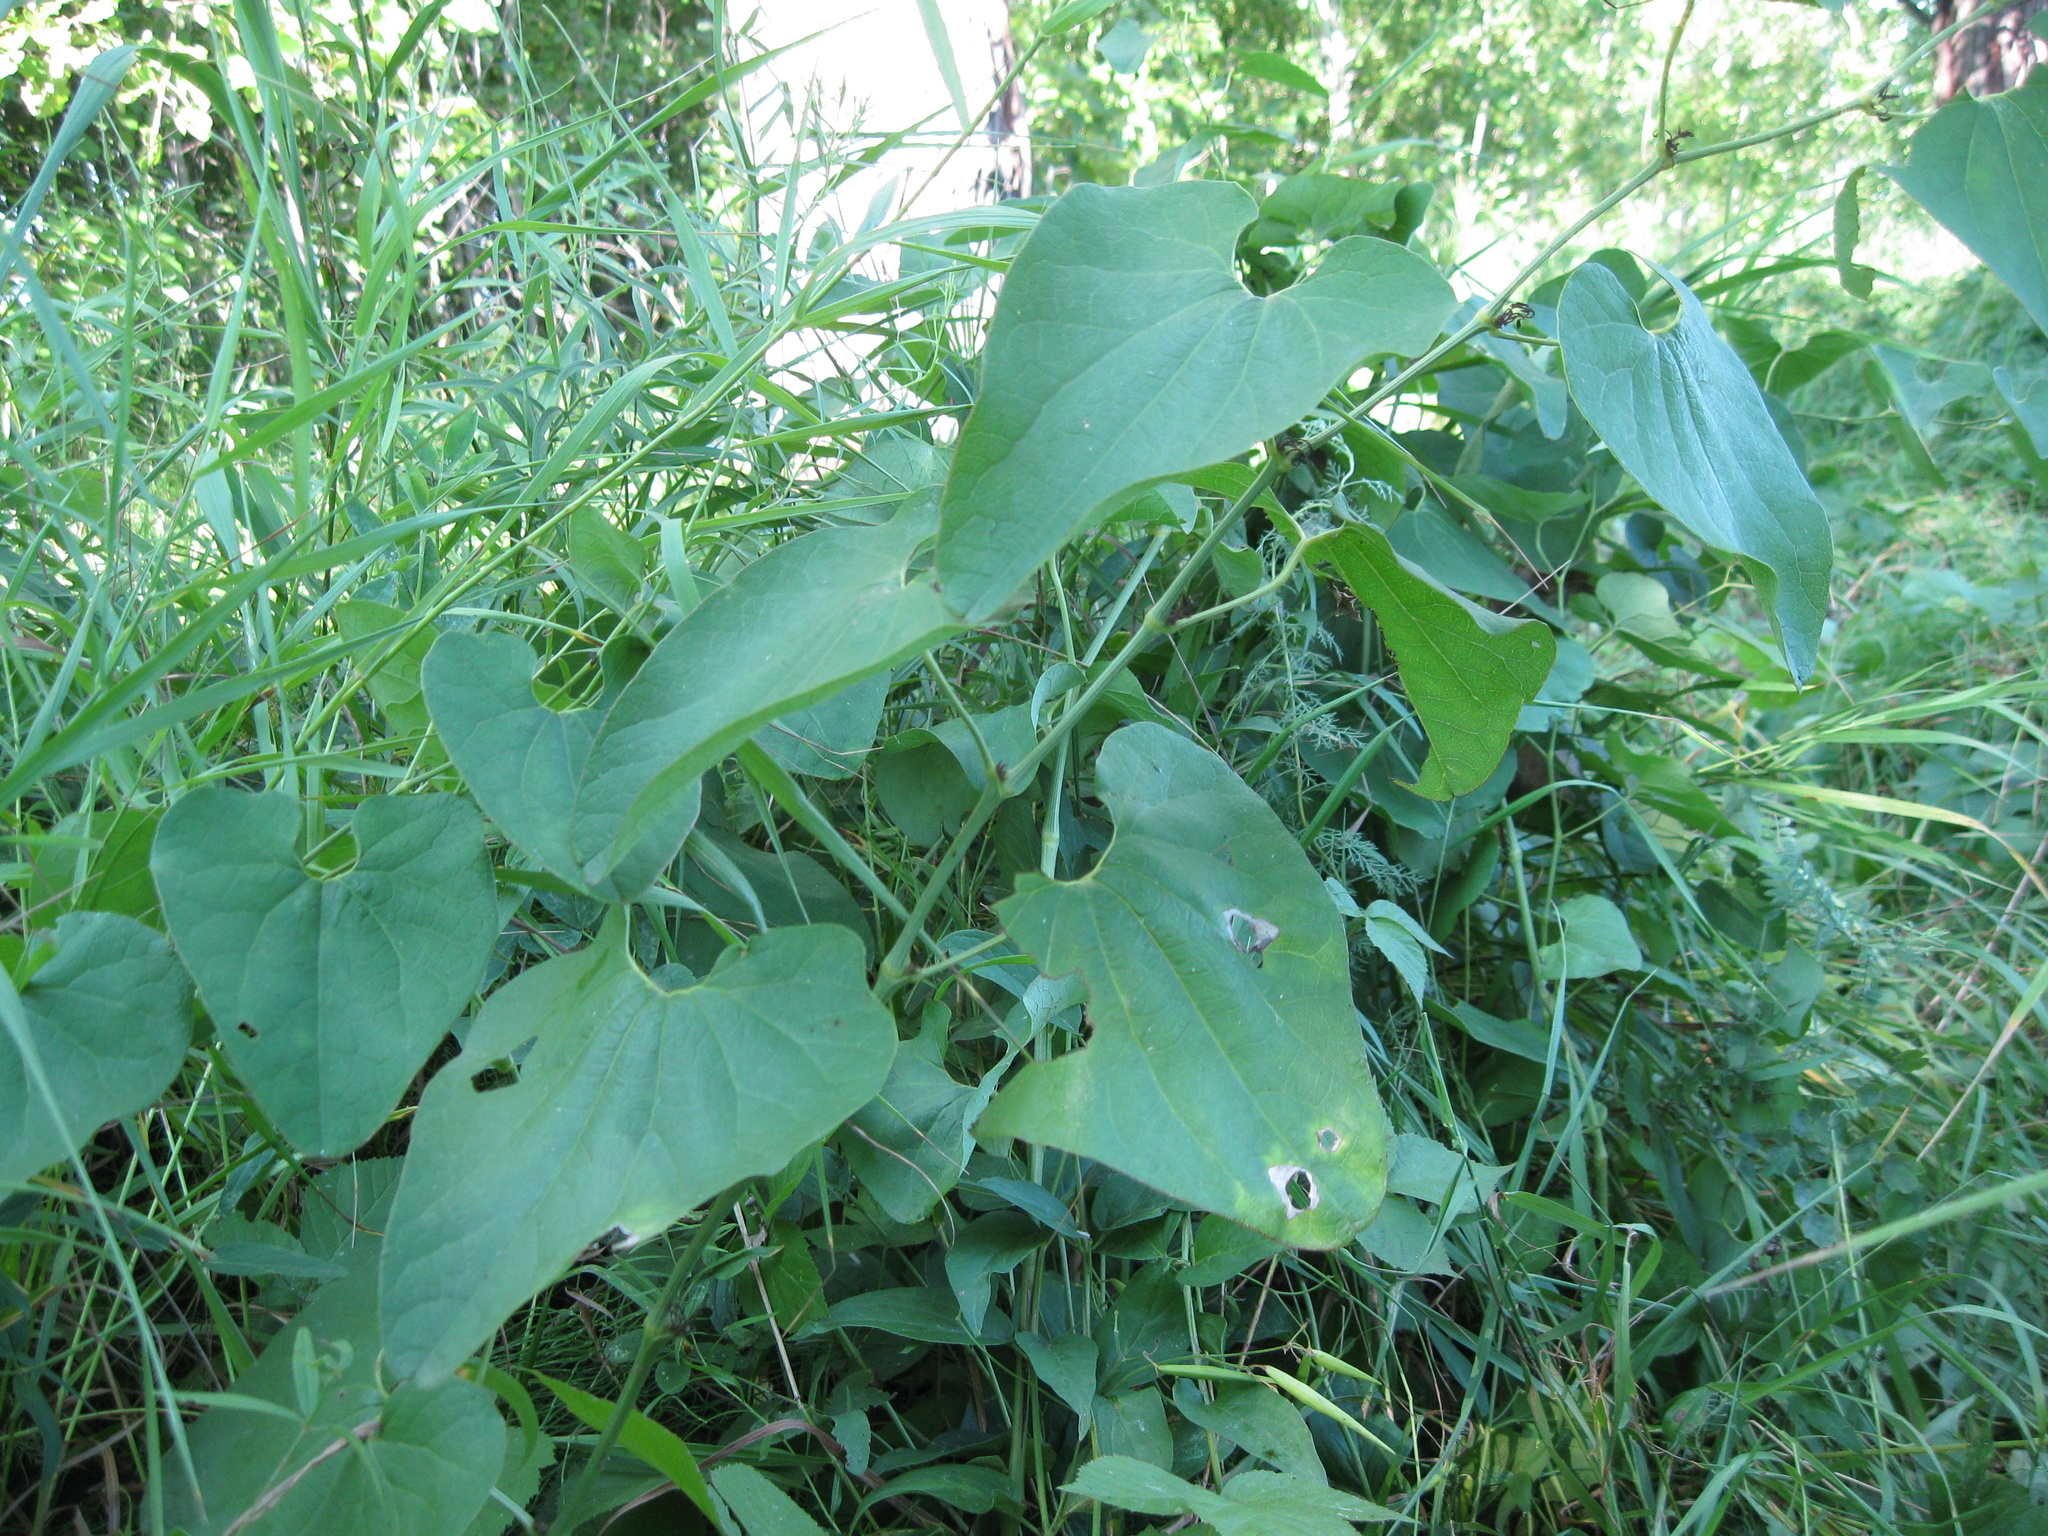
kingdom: Plantae
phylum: Tracheophyta
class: Magnoliopsida
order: Piperales
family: Aristolochiaceae
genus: Aristolochia
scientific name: Aristolochia clematitis
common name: Birthwort
